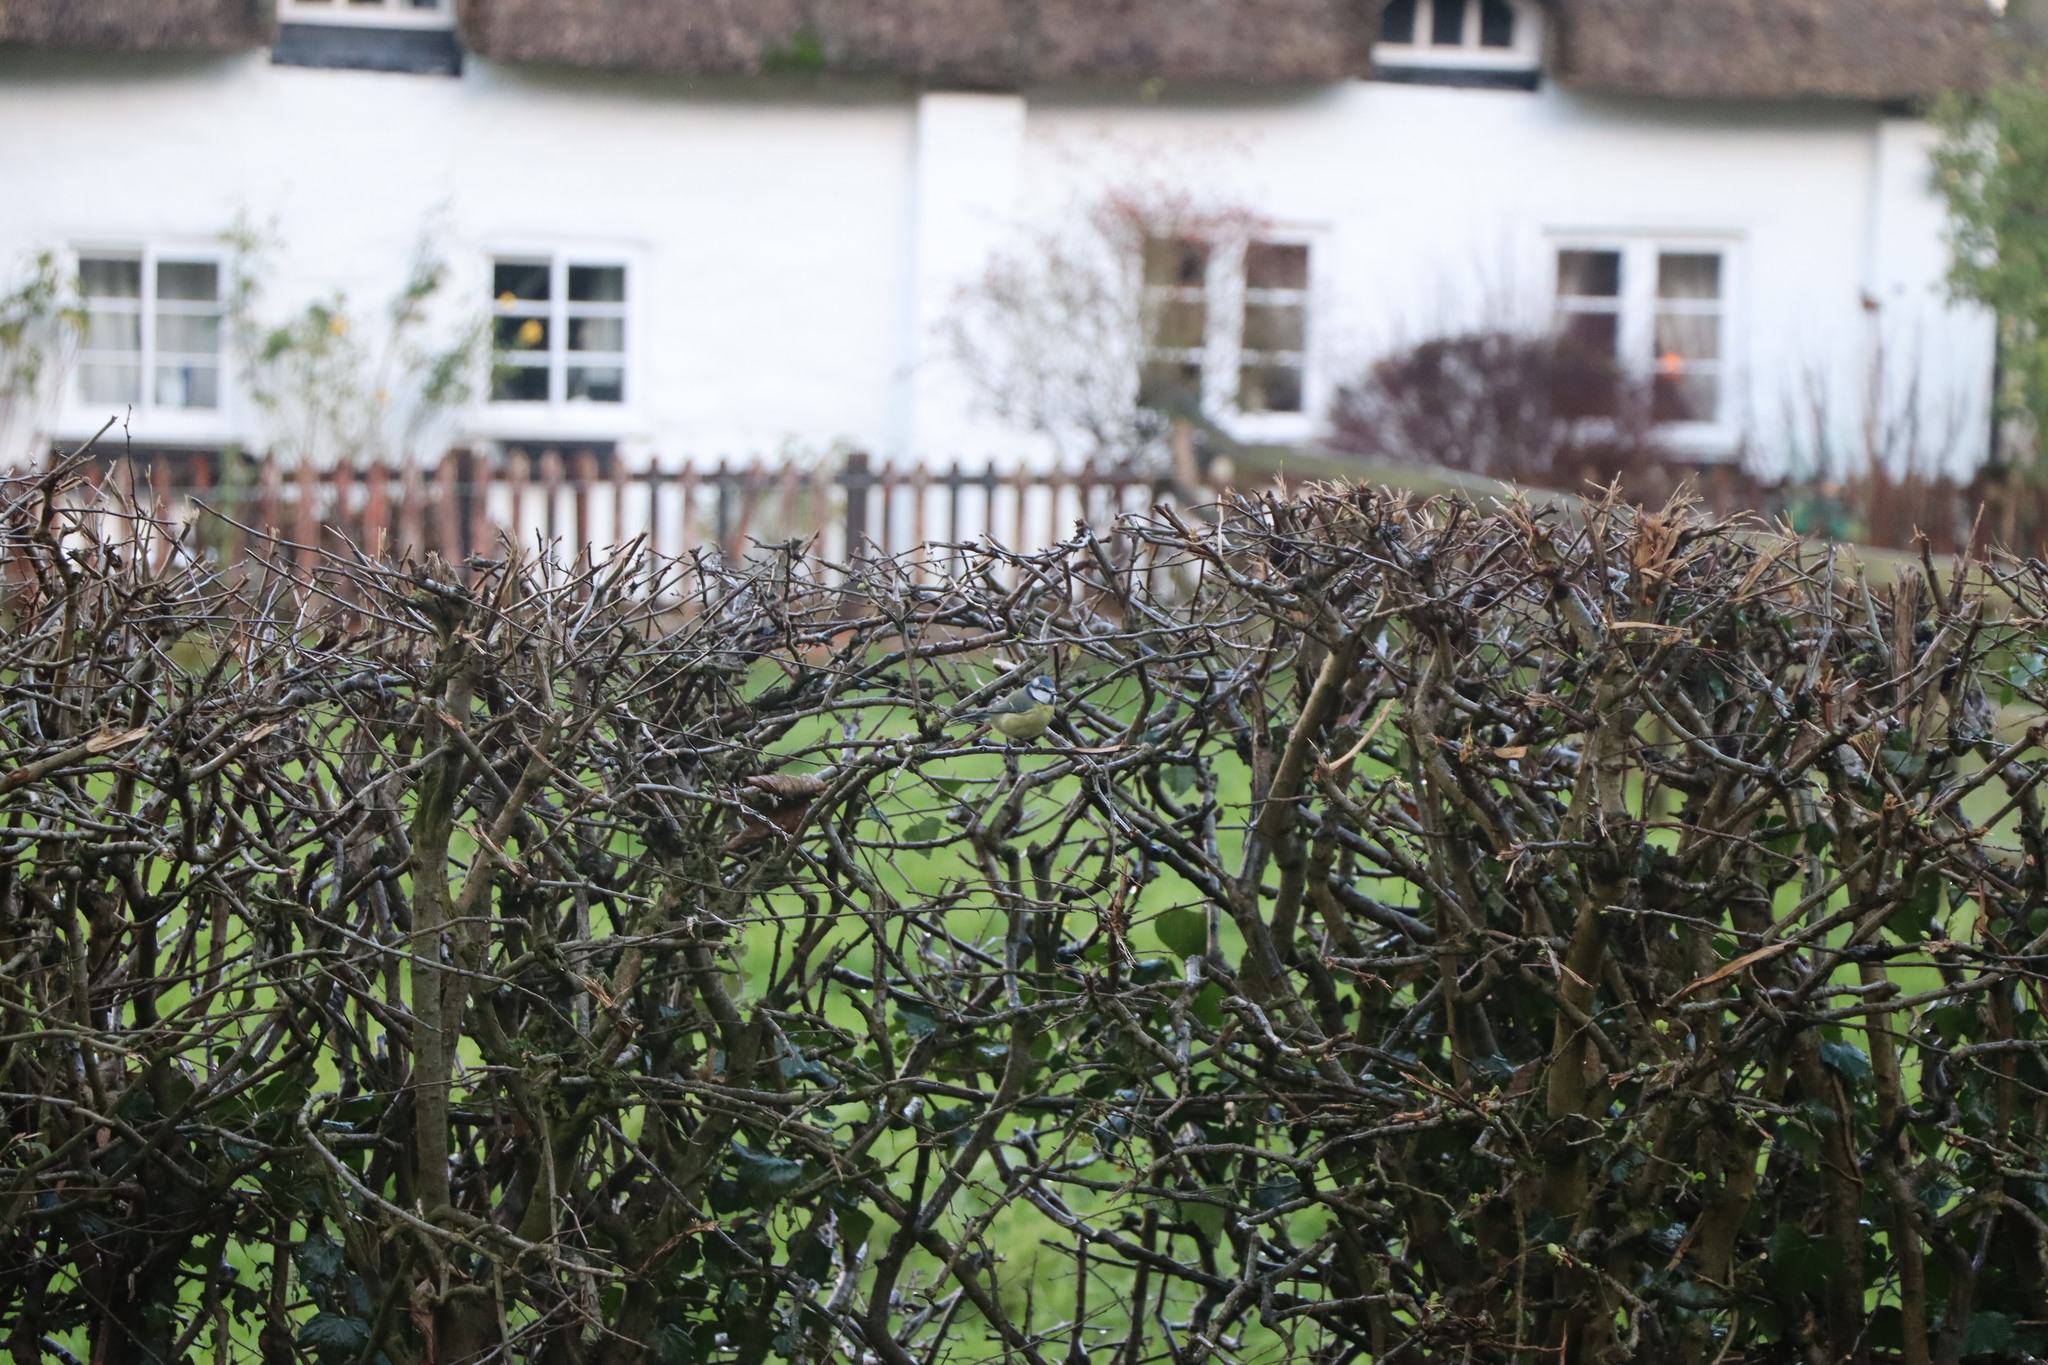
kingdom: Animalia
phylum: Chordata
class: Aves
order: Passeriformes
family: Paridae
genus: Cyanistes
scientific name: Cyanistes caeruleus
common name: Eurasian blue tit
